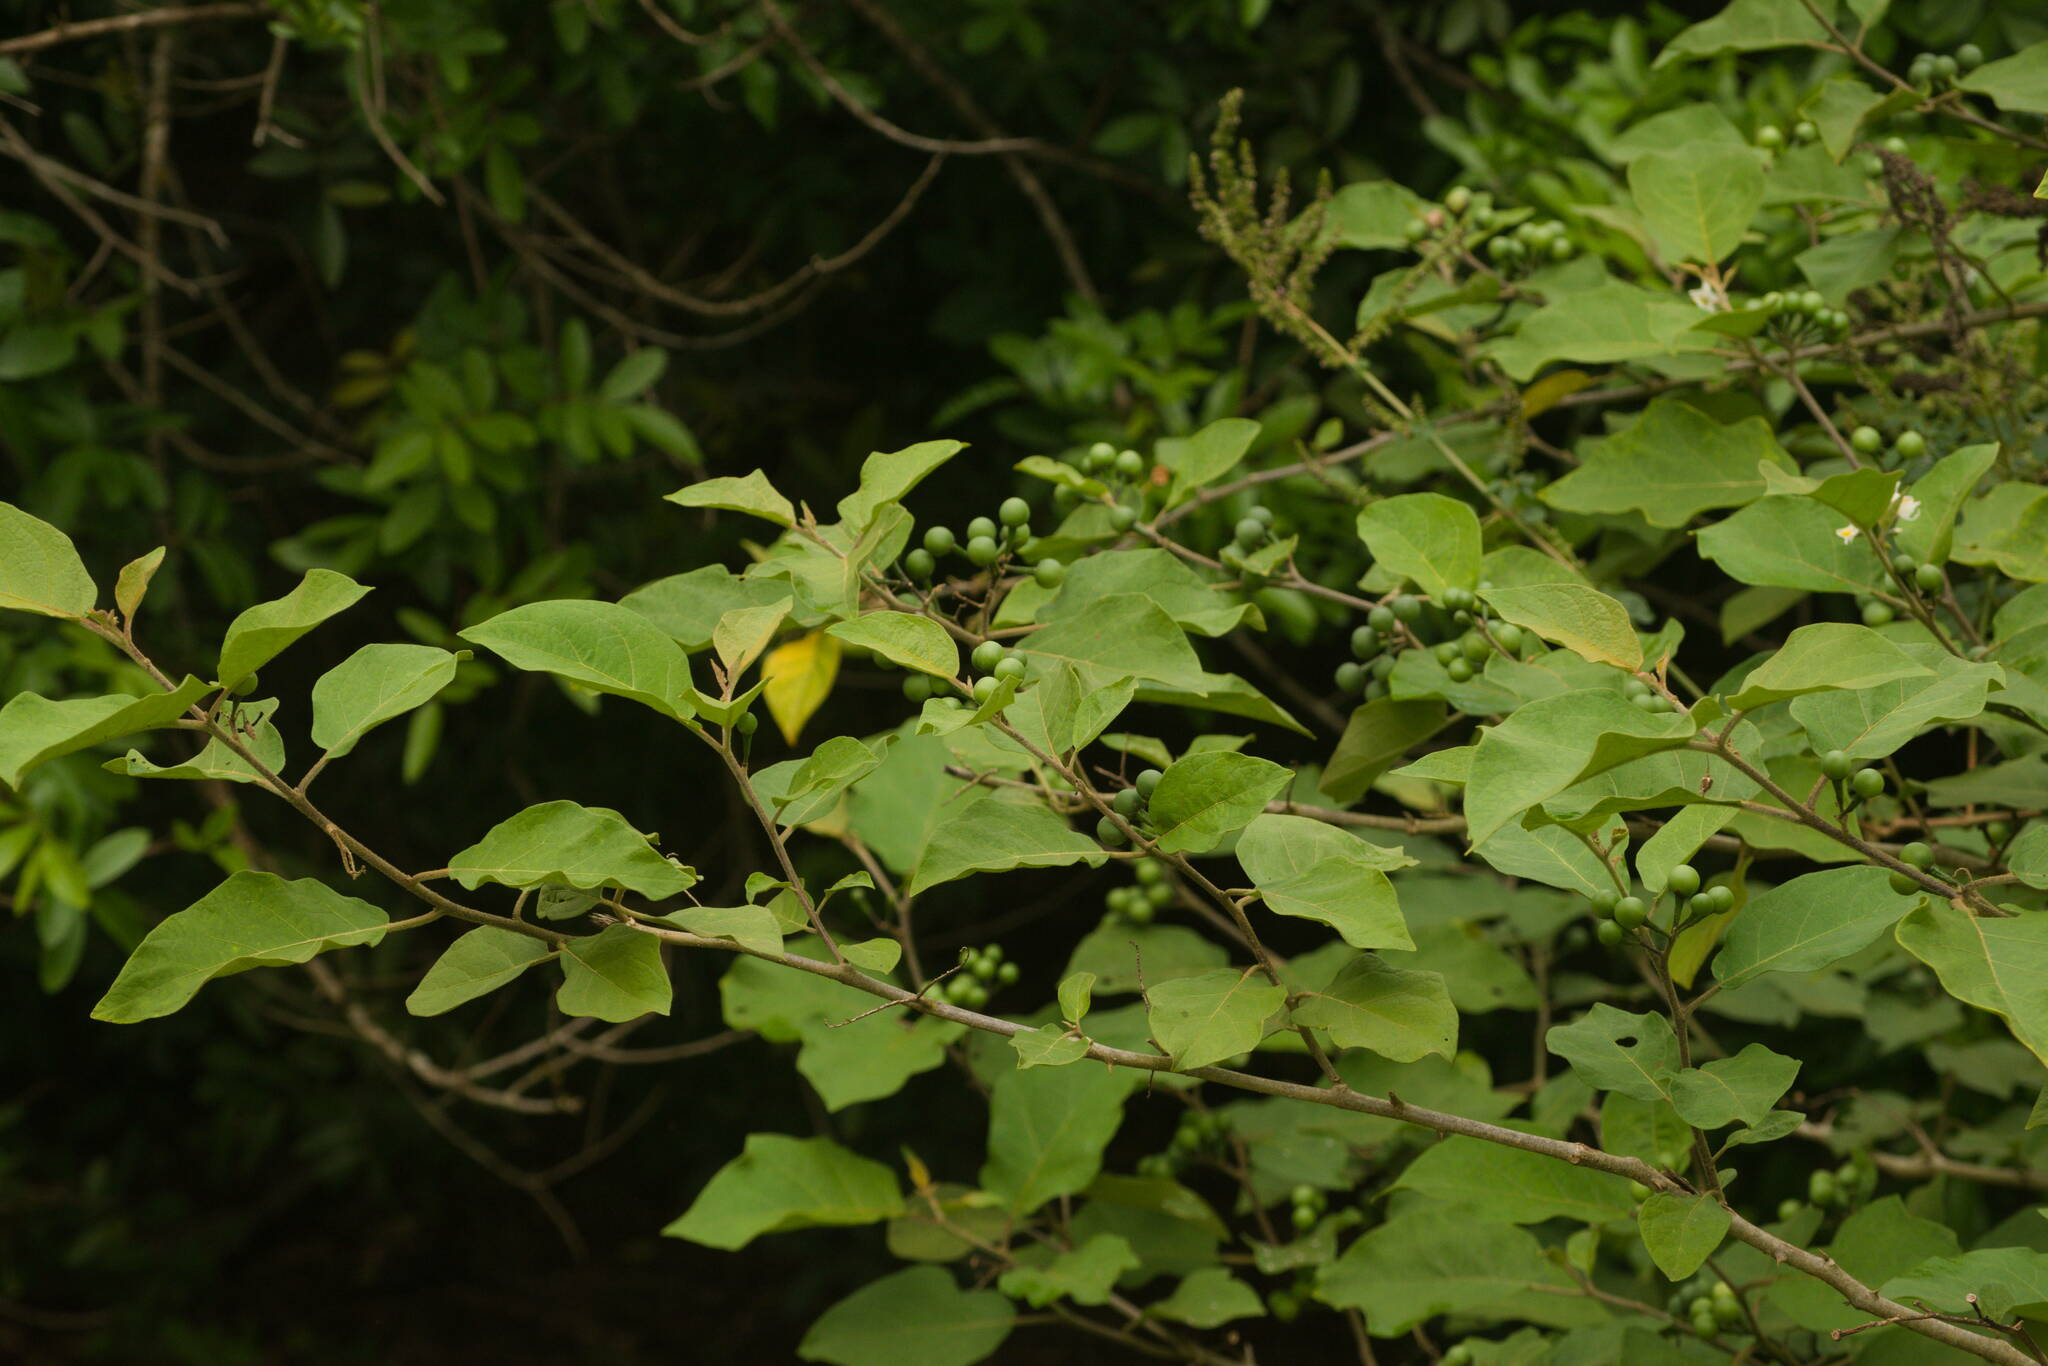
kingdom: Plantae
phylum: Tracheophyta
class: Magnoliopsida
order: Solanales
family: Solanaceae
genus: Solanum
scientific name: Solanum torvum
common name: Turkey berry
